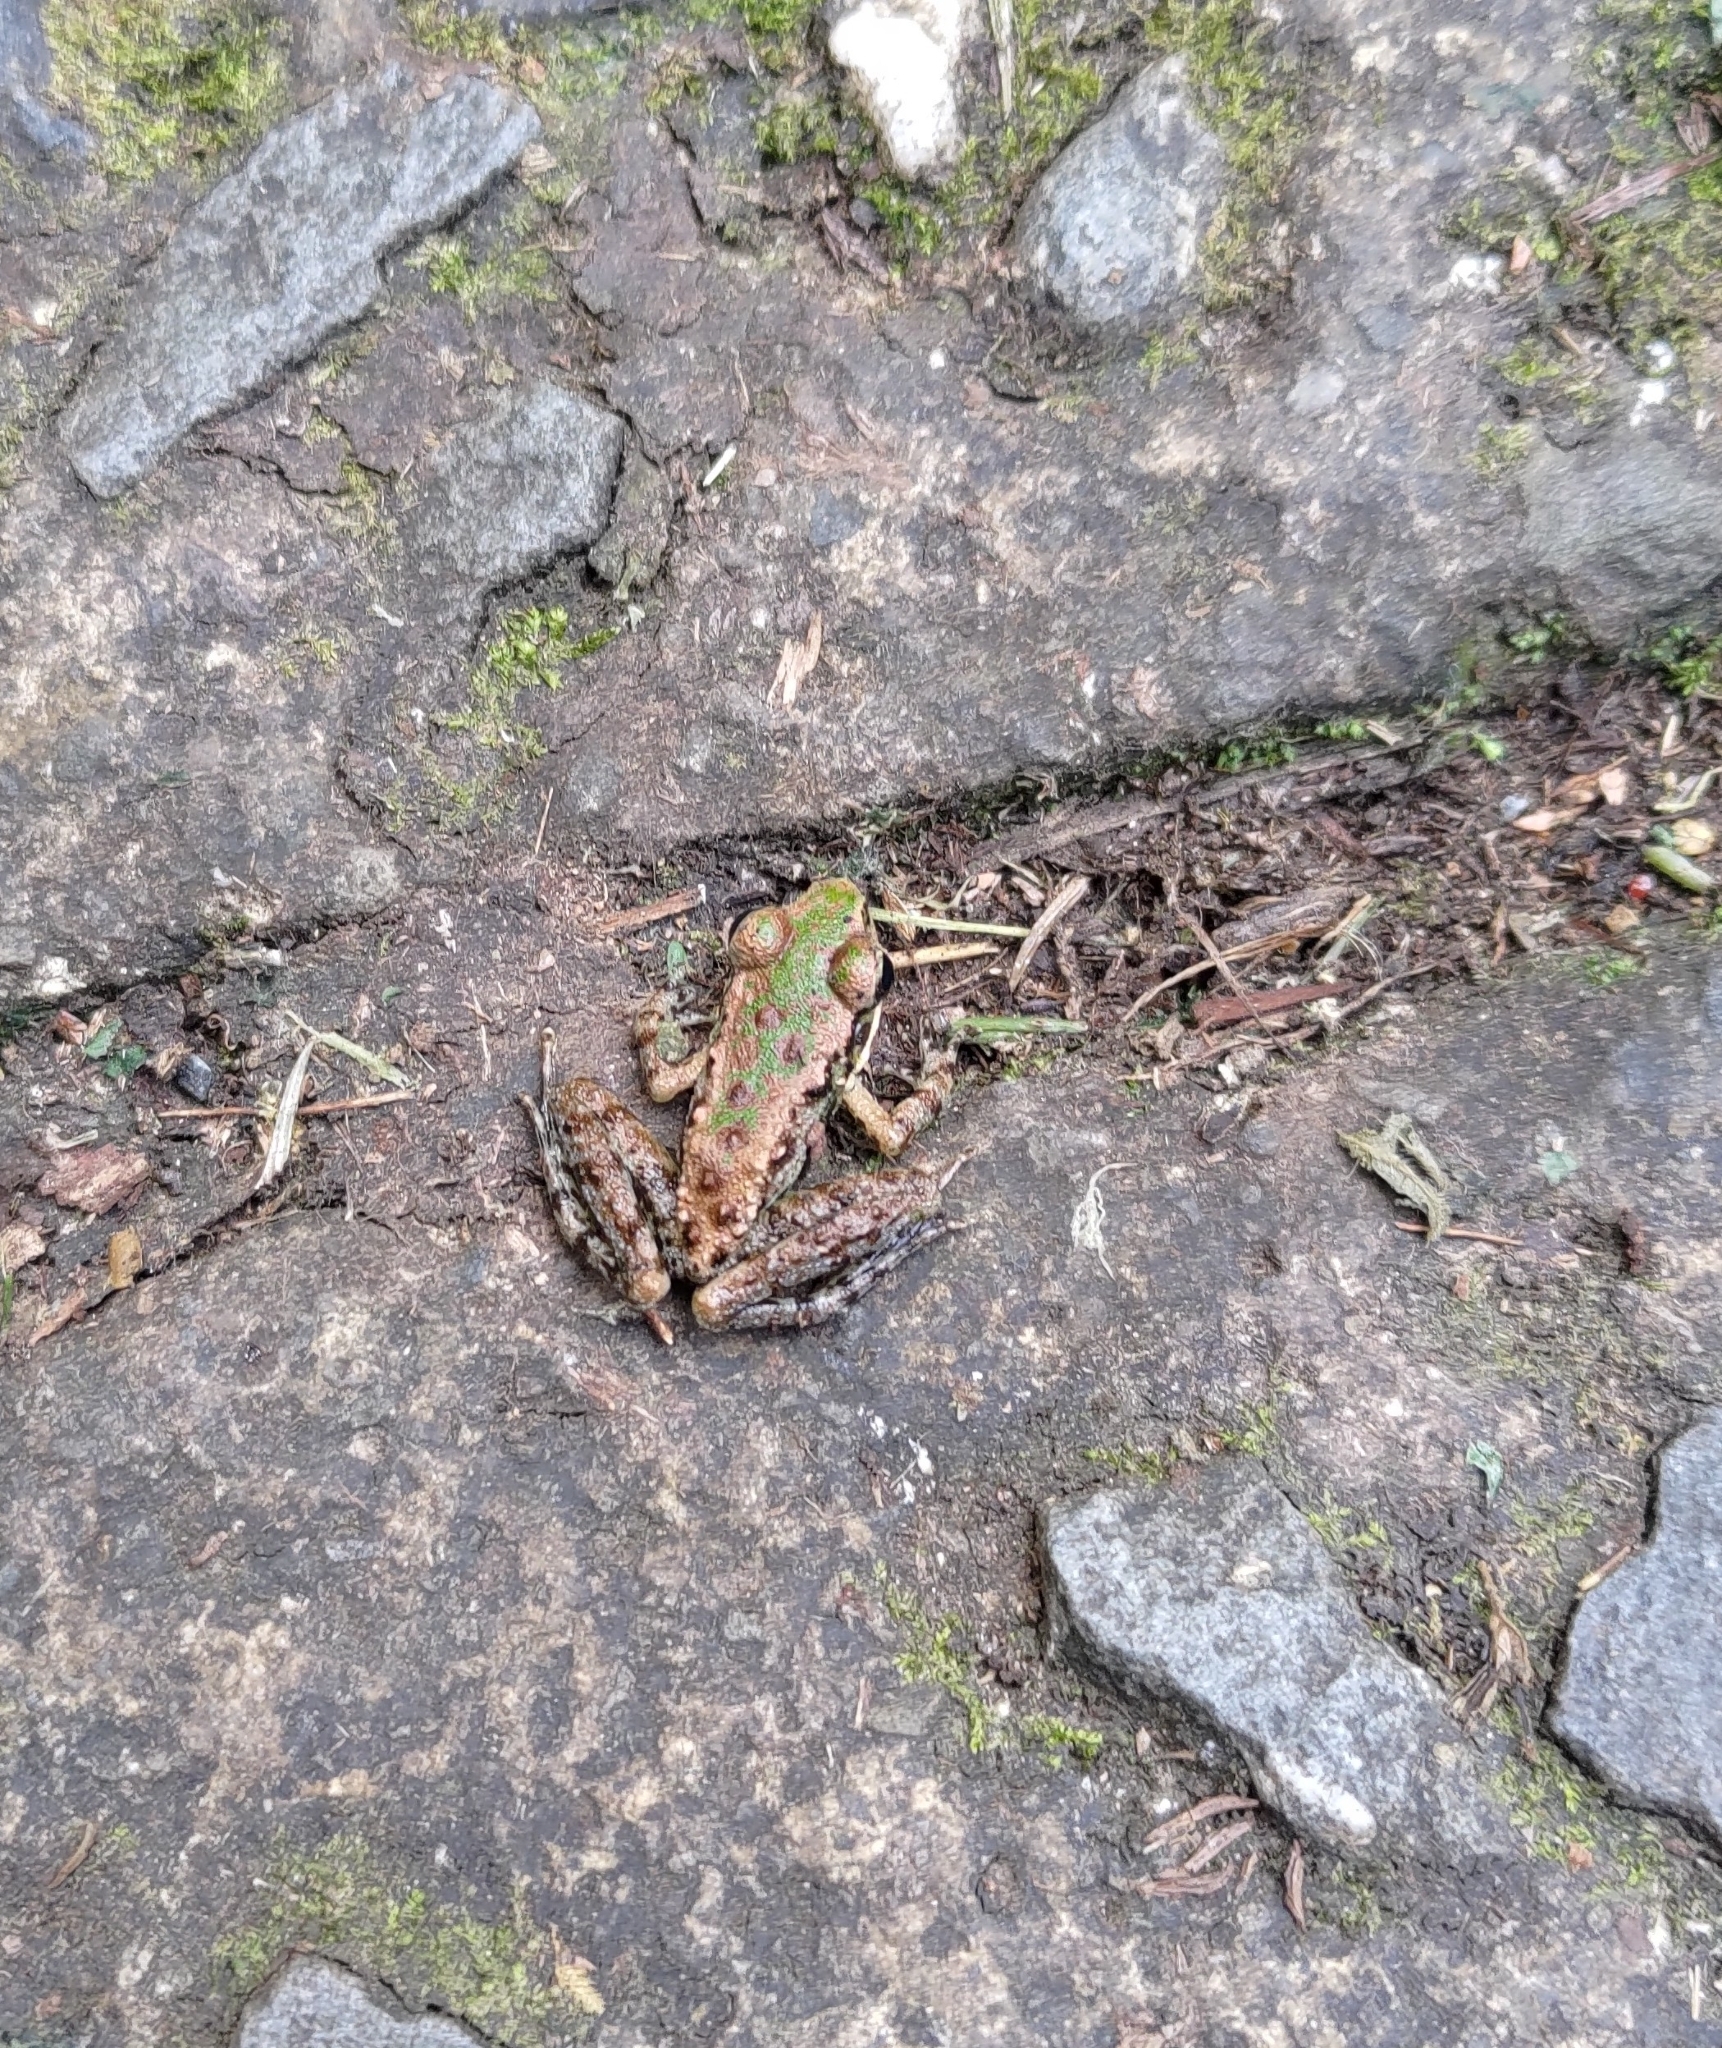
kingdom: Animalia
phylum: Chordata
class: Amphibia
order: Anura
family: Ranidae
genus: Odorrana
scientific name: Odorrana swinhoana
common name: Bangkimtsing frog
